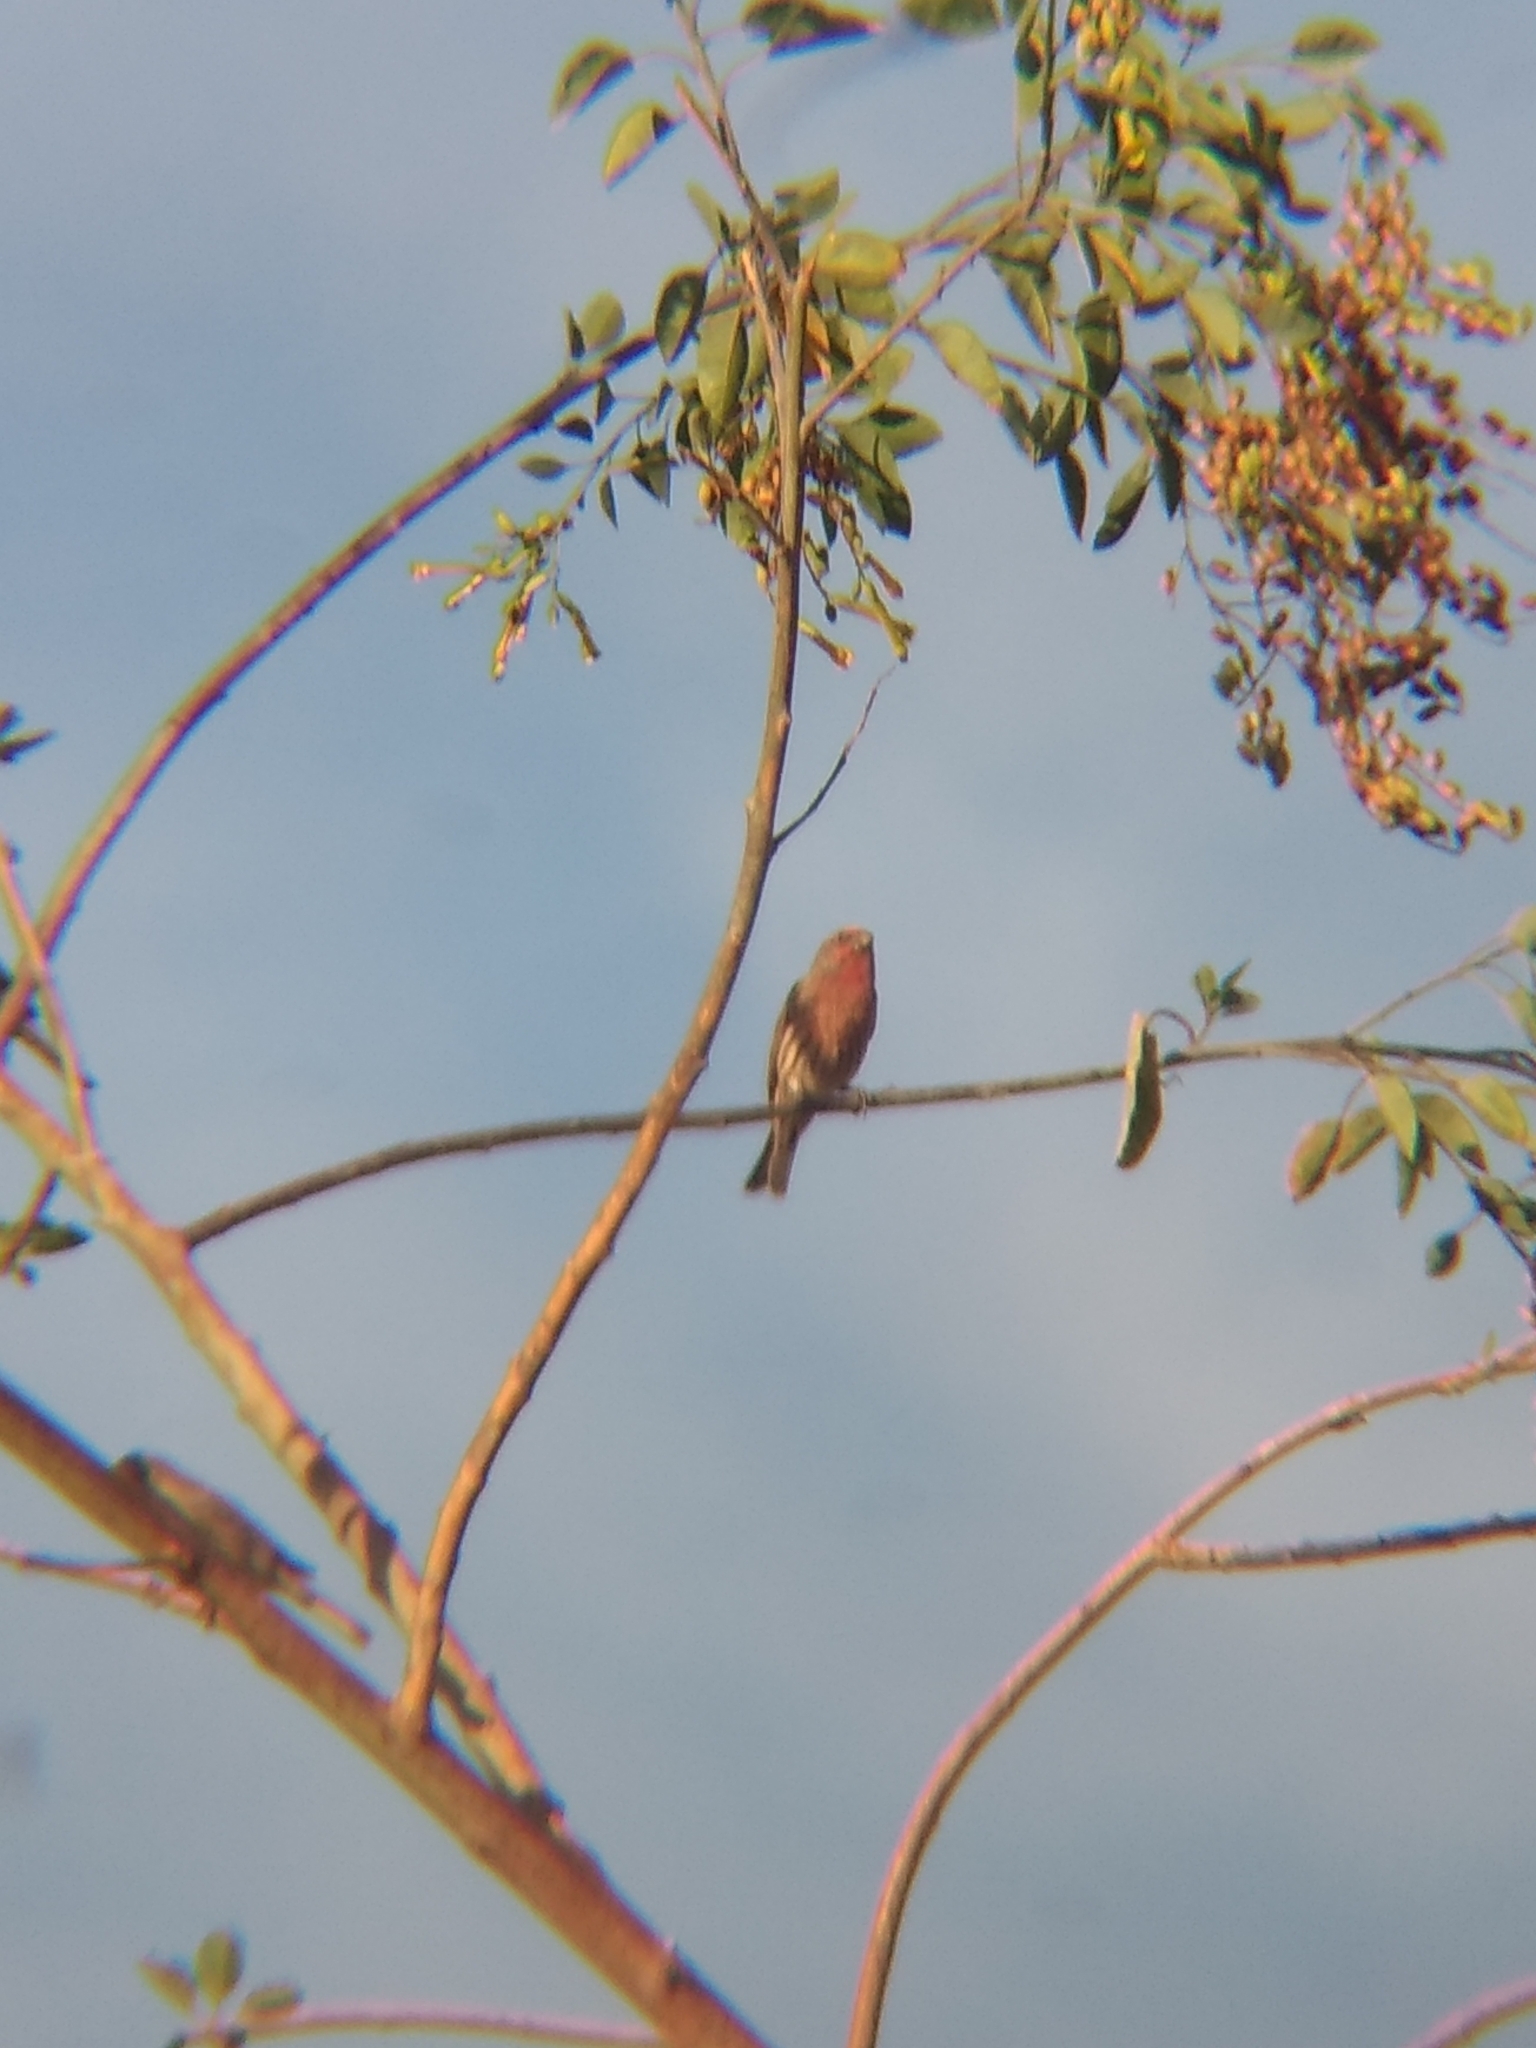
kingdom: Animalia
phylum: Chordata
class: Aves
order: Passeriformes
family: Fringillidae
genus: Haemorhous
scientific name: Haemorhous mexicanus
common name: House finch
